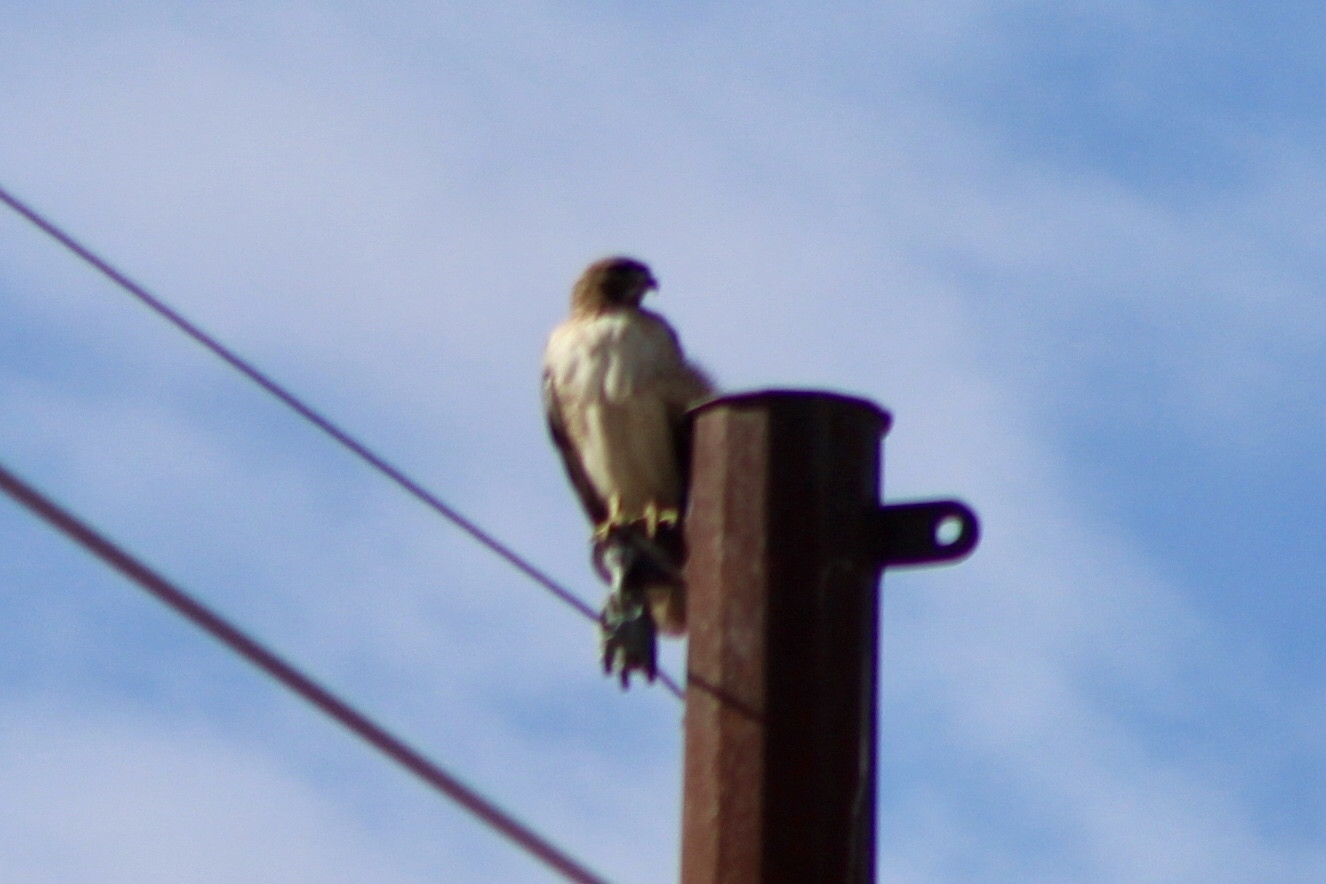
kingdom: Animalia
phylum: Chordata
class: Aves
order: Accipitriformes
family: Accipitridae
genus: Buteo
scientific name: Buteo jamaicensis
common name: Red-tailed hawk
